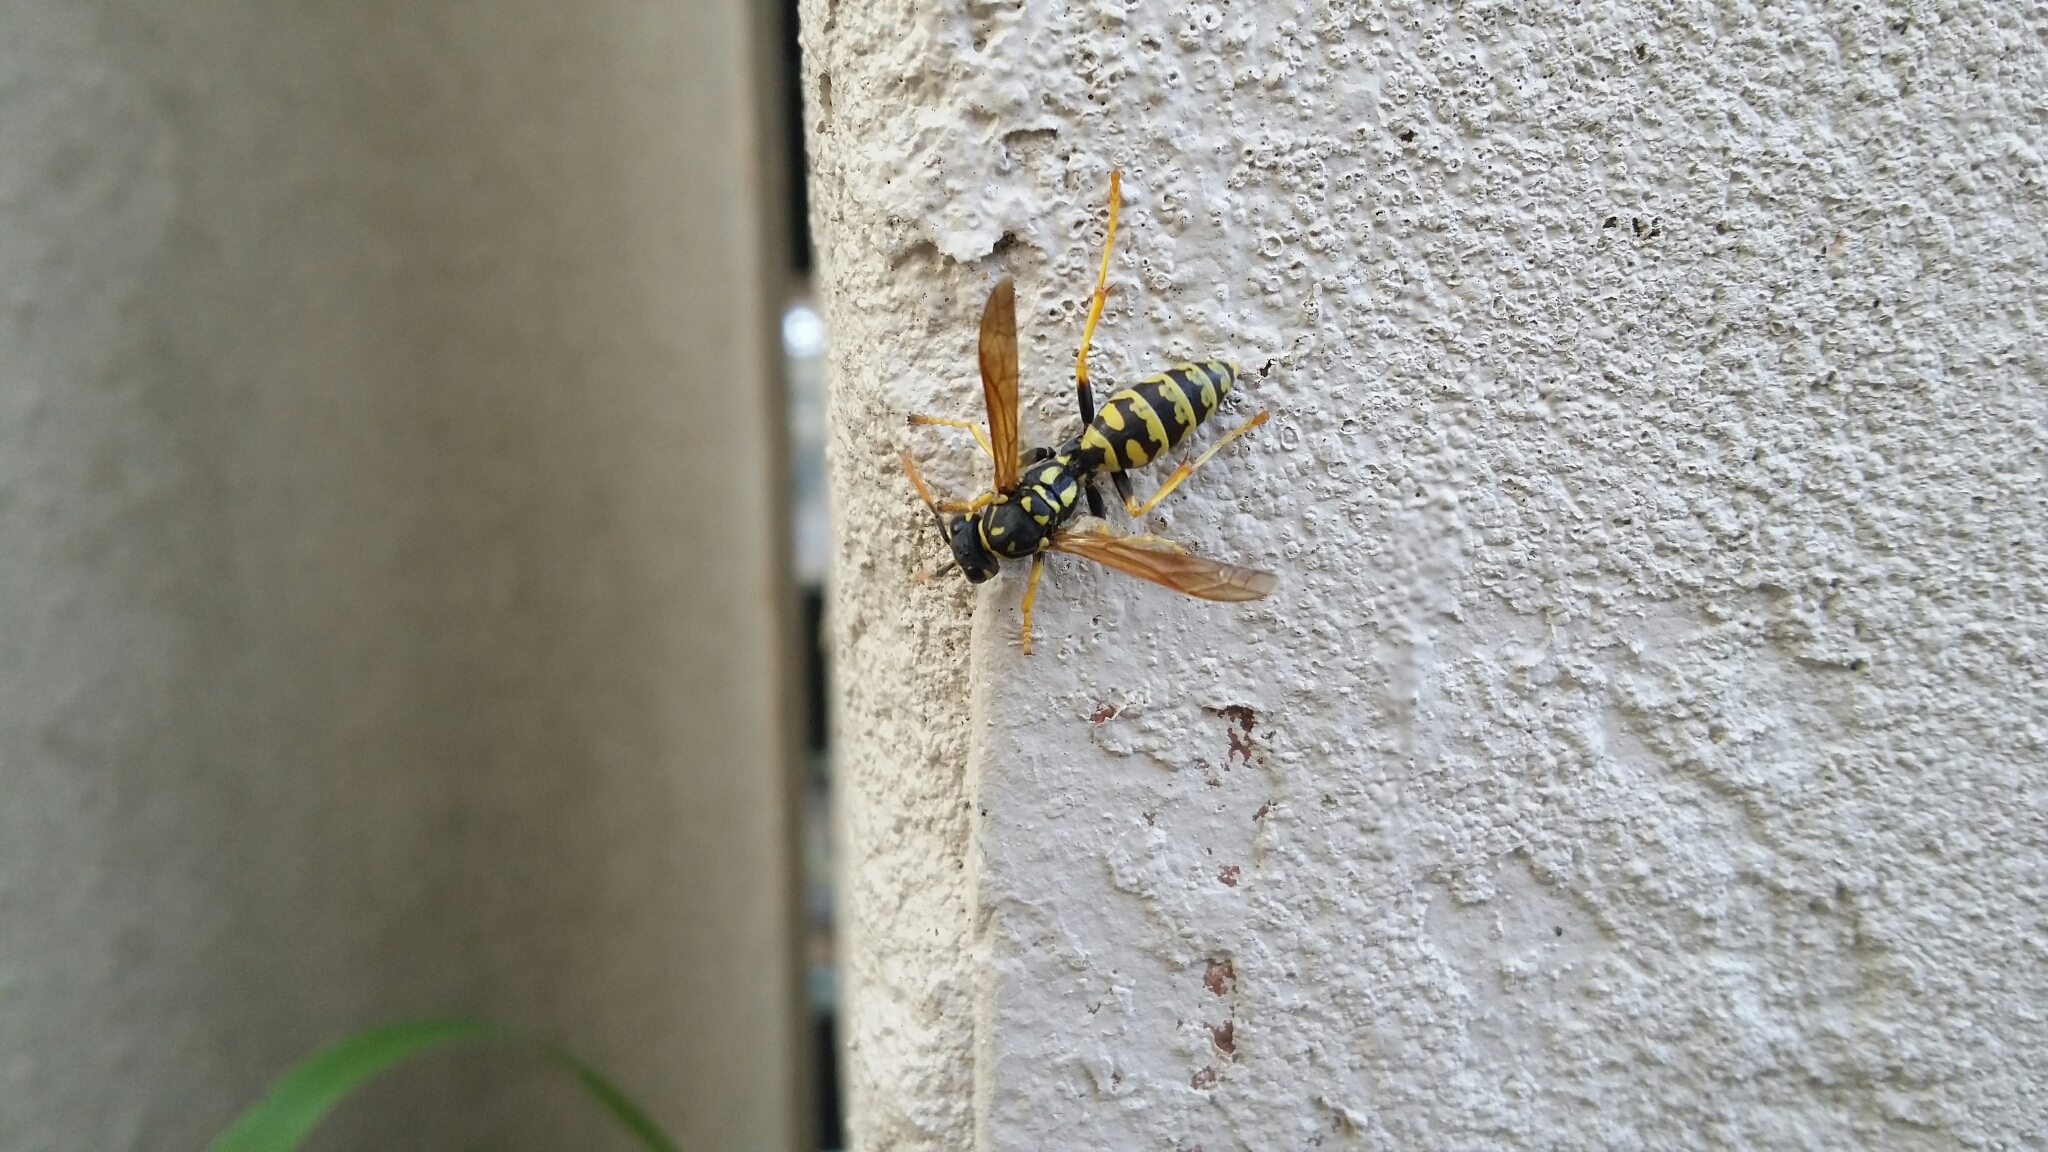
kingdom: Animalia
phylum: Arthropoda
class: Insecta
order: Hymenoptera
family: Eumenidae
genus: Polistes
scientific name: Polistes dominula
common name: Paper wasp
